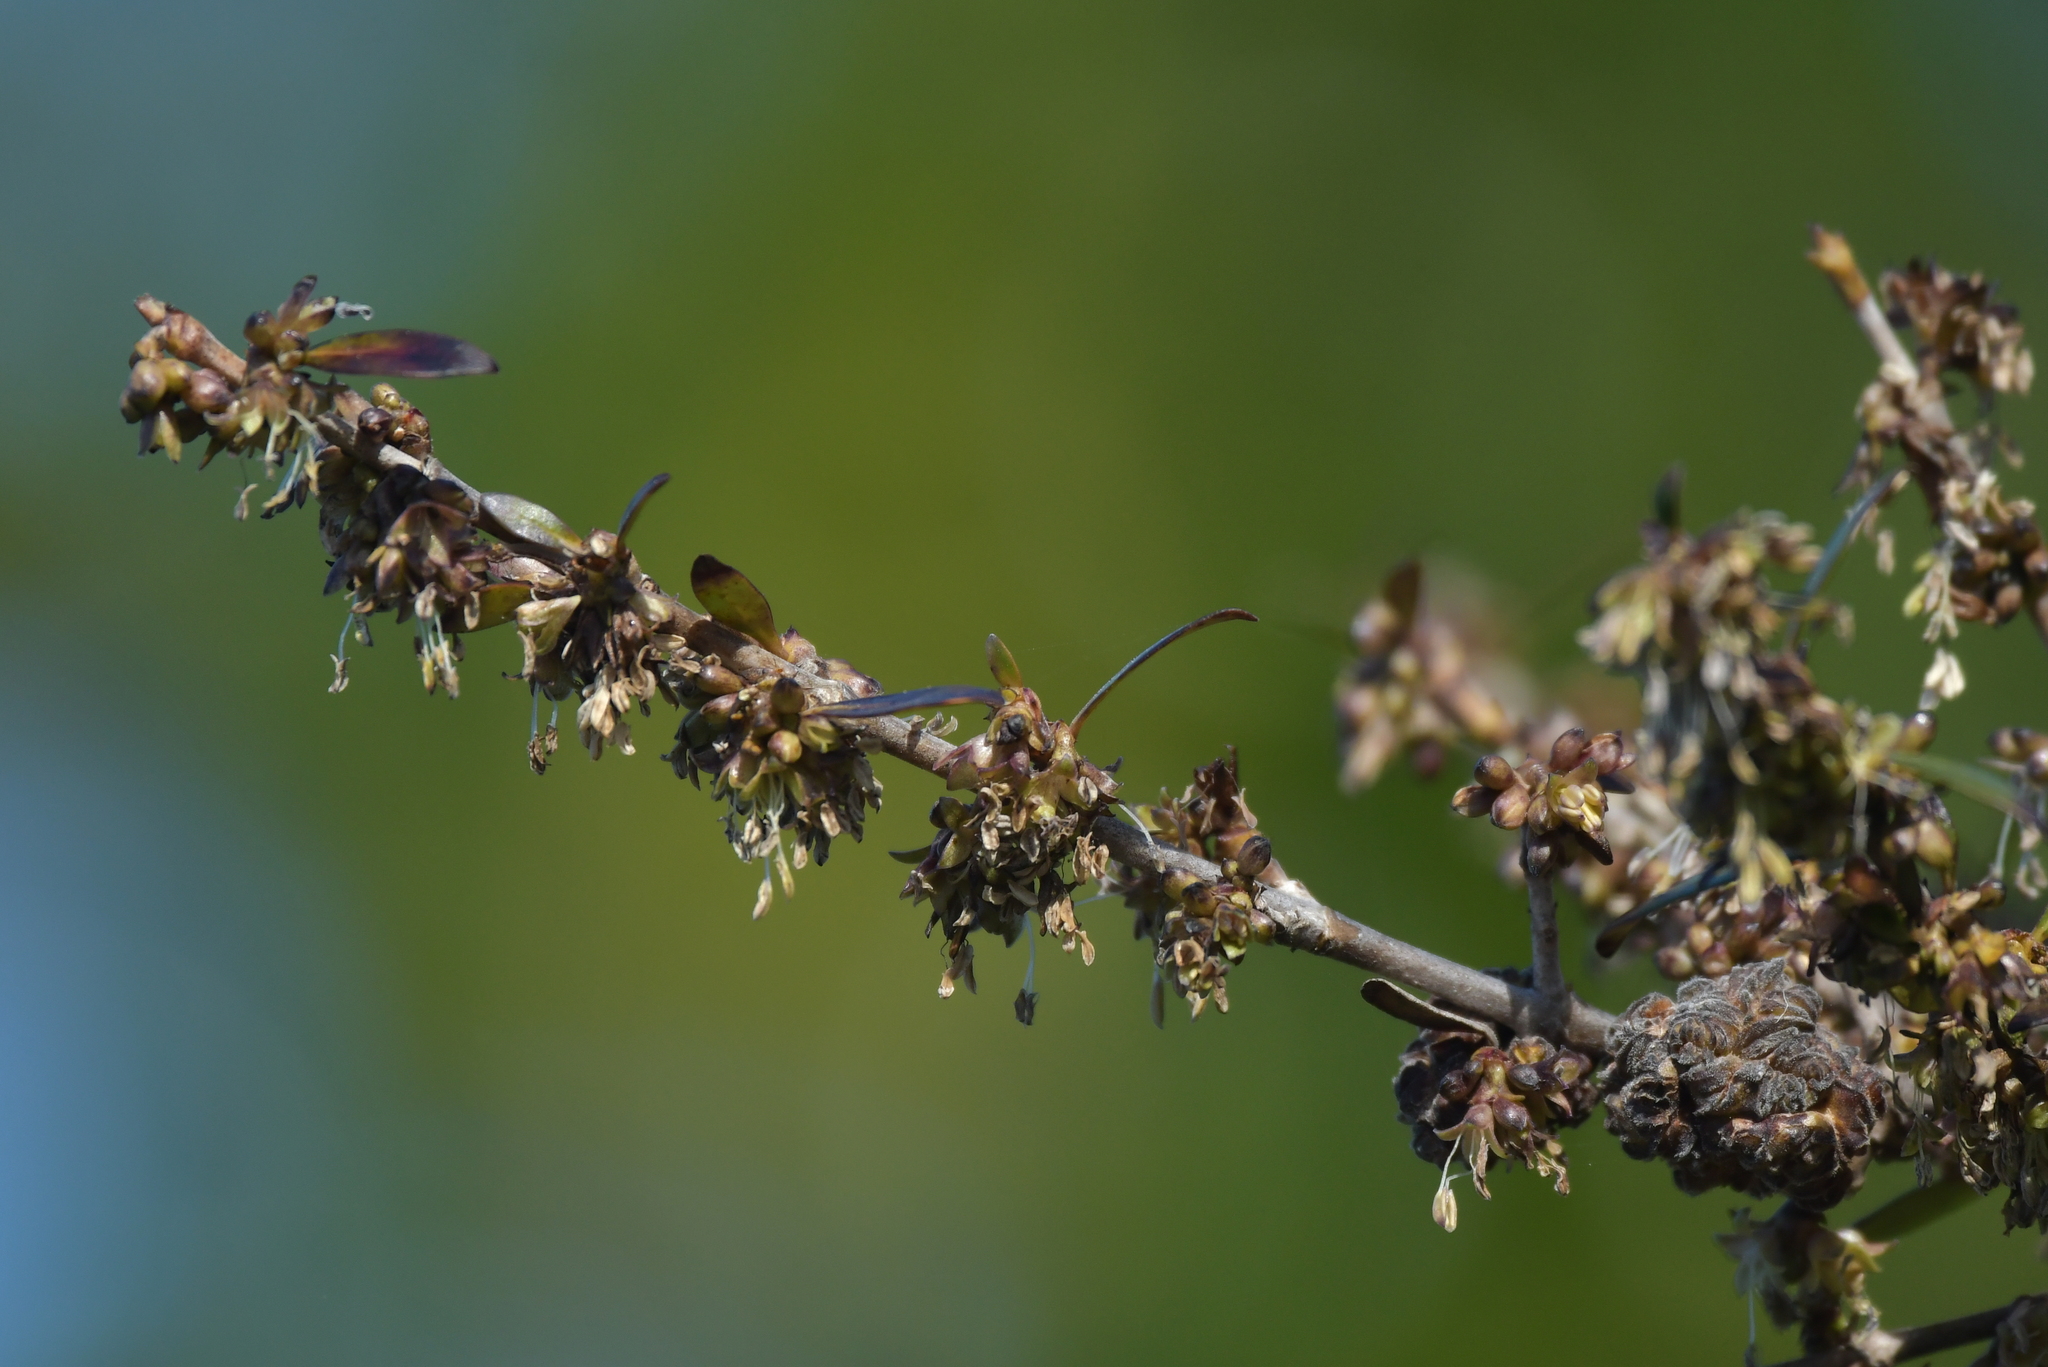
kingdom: Plantae
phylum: Tracheophyta
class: Magnoliopsida
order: Gentianales
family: Rubiaceae
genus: Coprosma
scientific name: Coprosma cunninghamii
